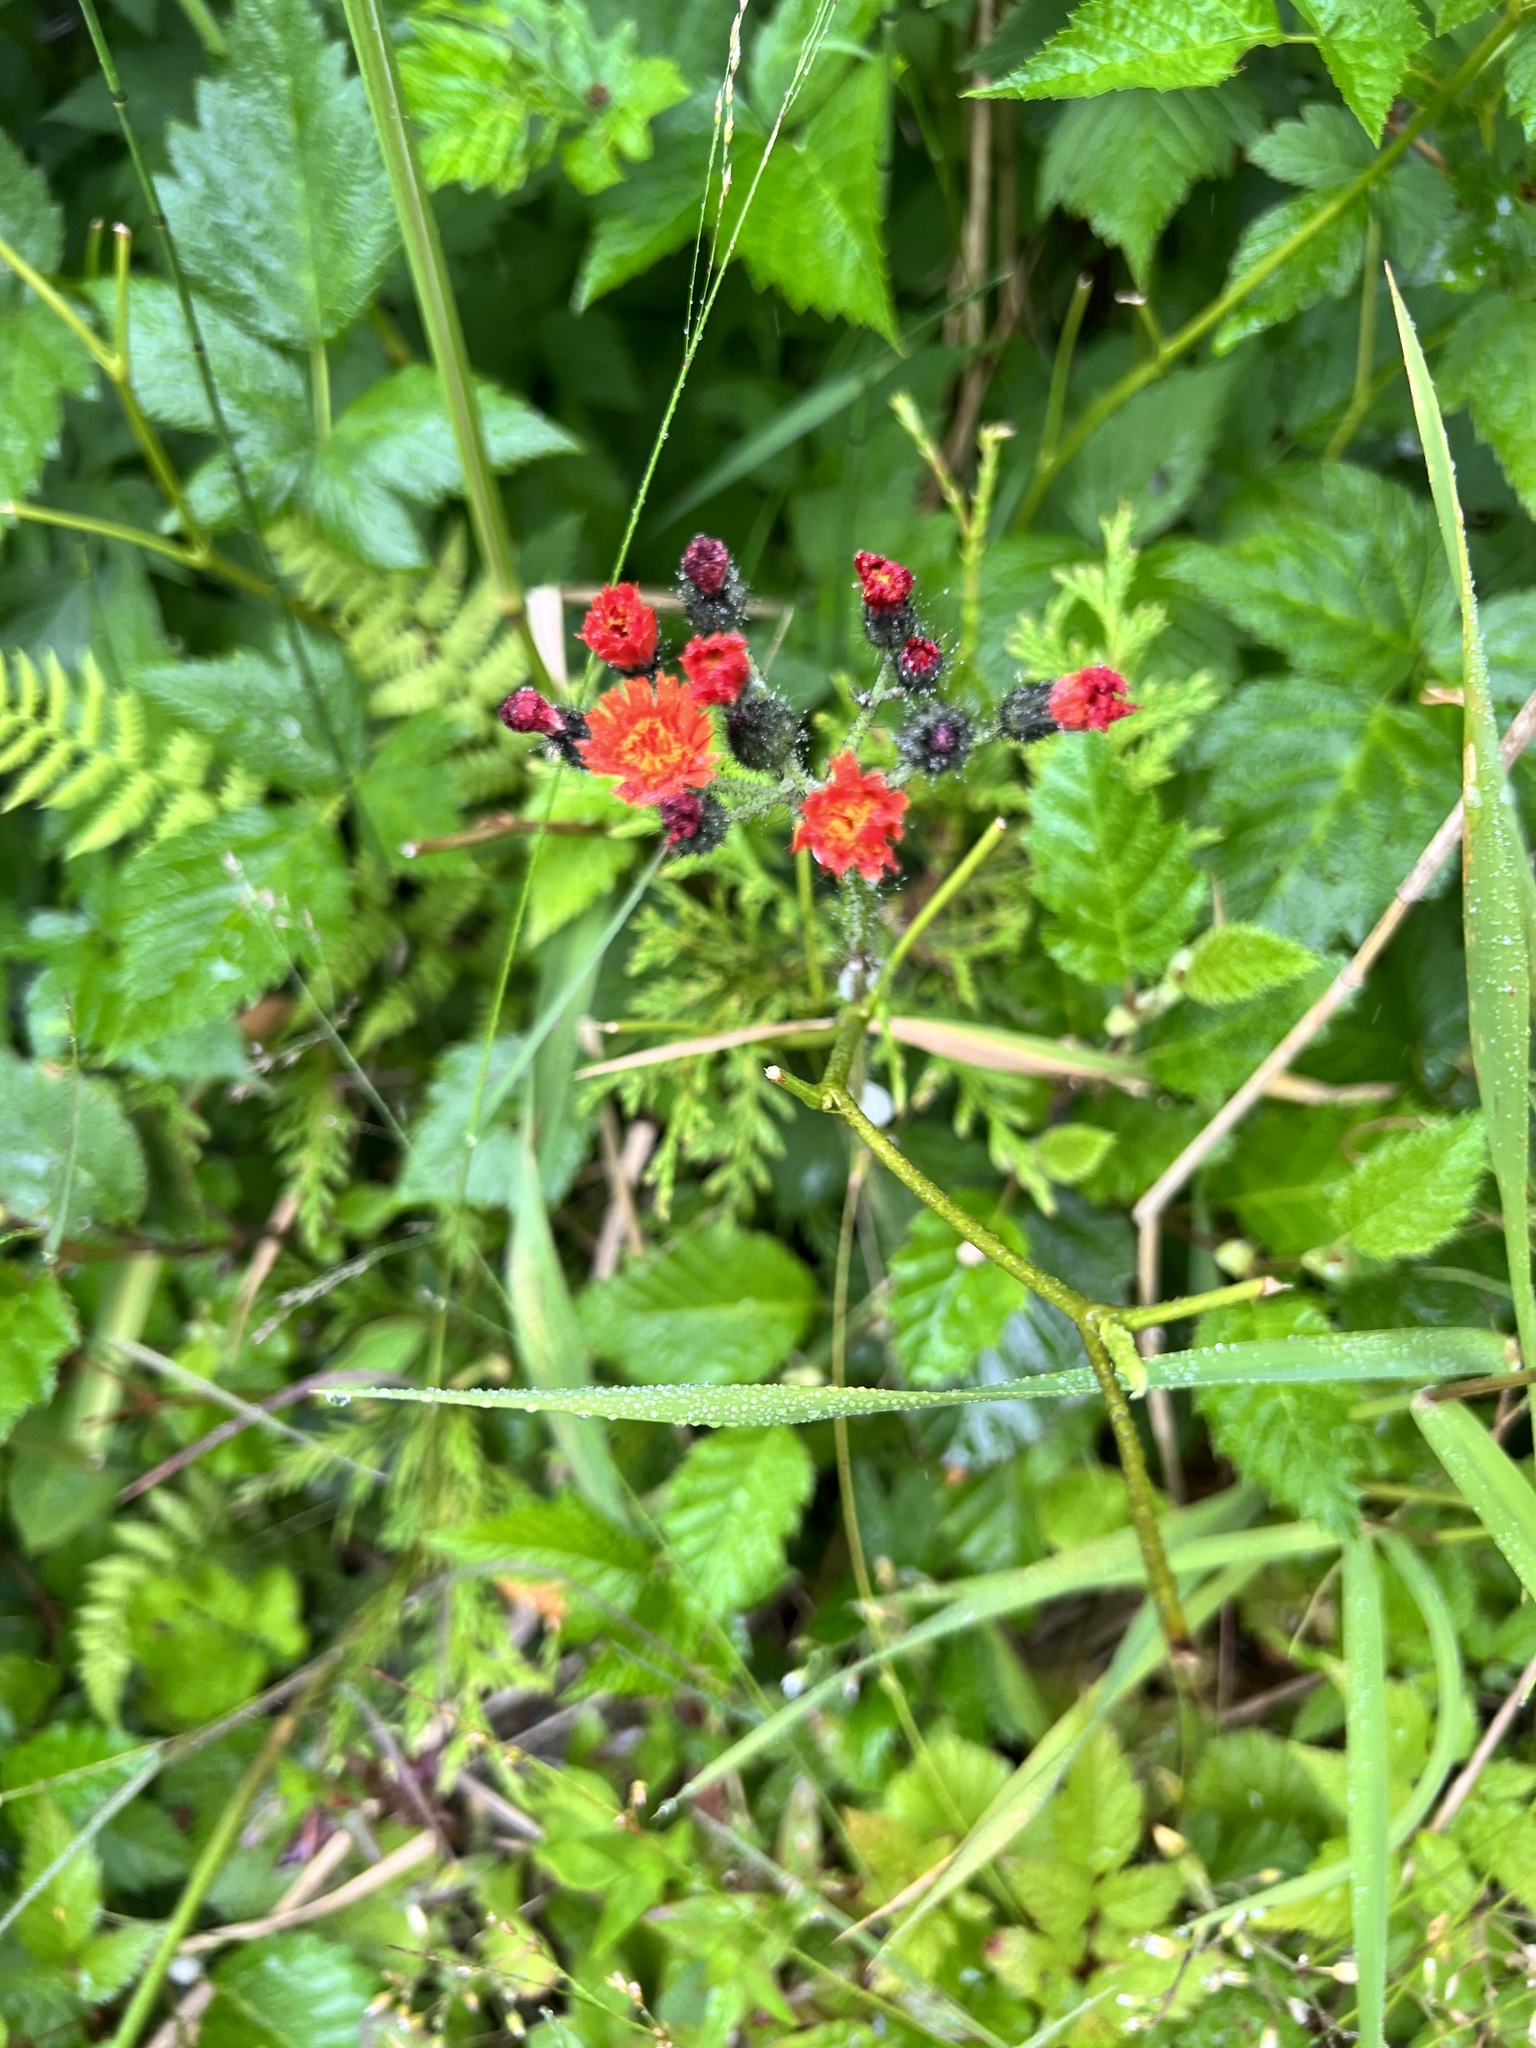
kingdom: Plantae
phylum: Tracheophyta
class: Magnoliopsida
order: Asterales
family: Asteraceae
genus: Pilosella
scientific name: Pilosella aurantiaca
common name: Fox-and-cubs
